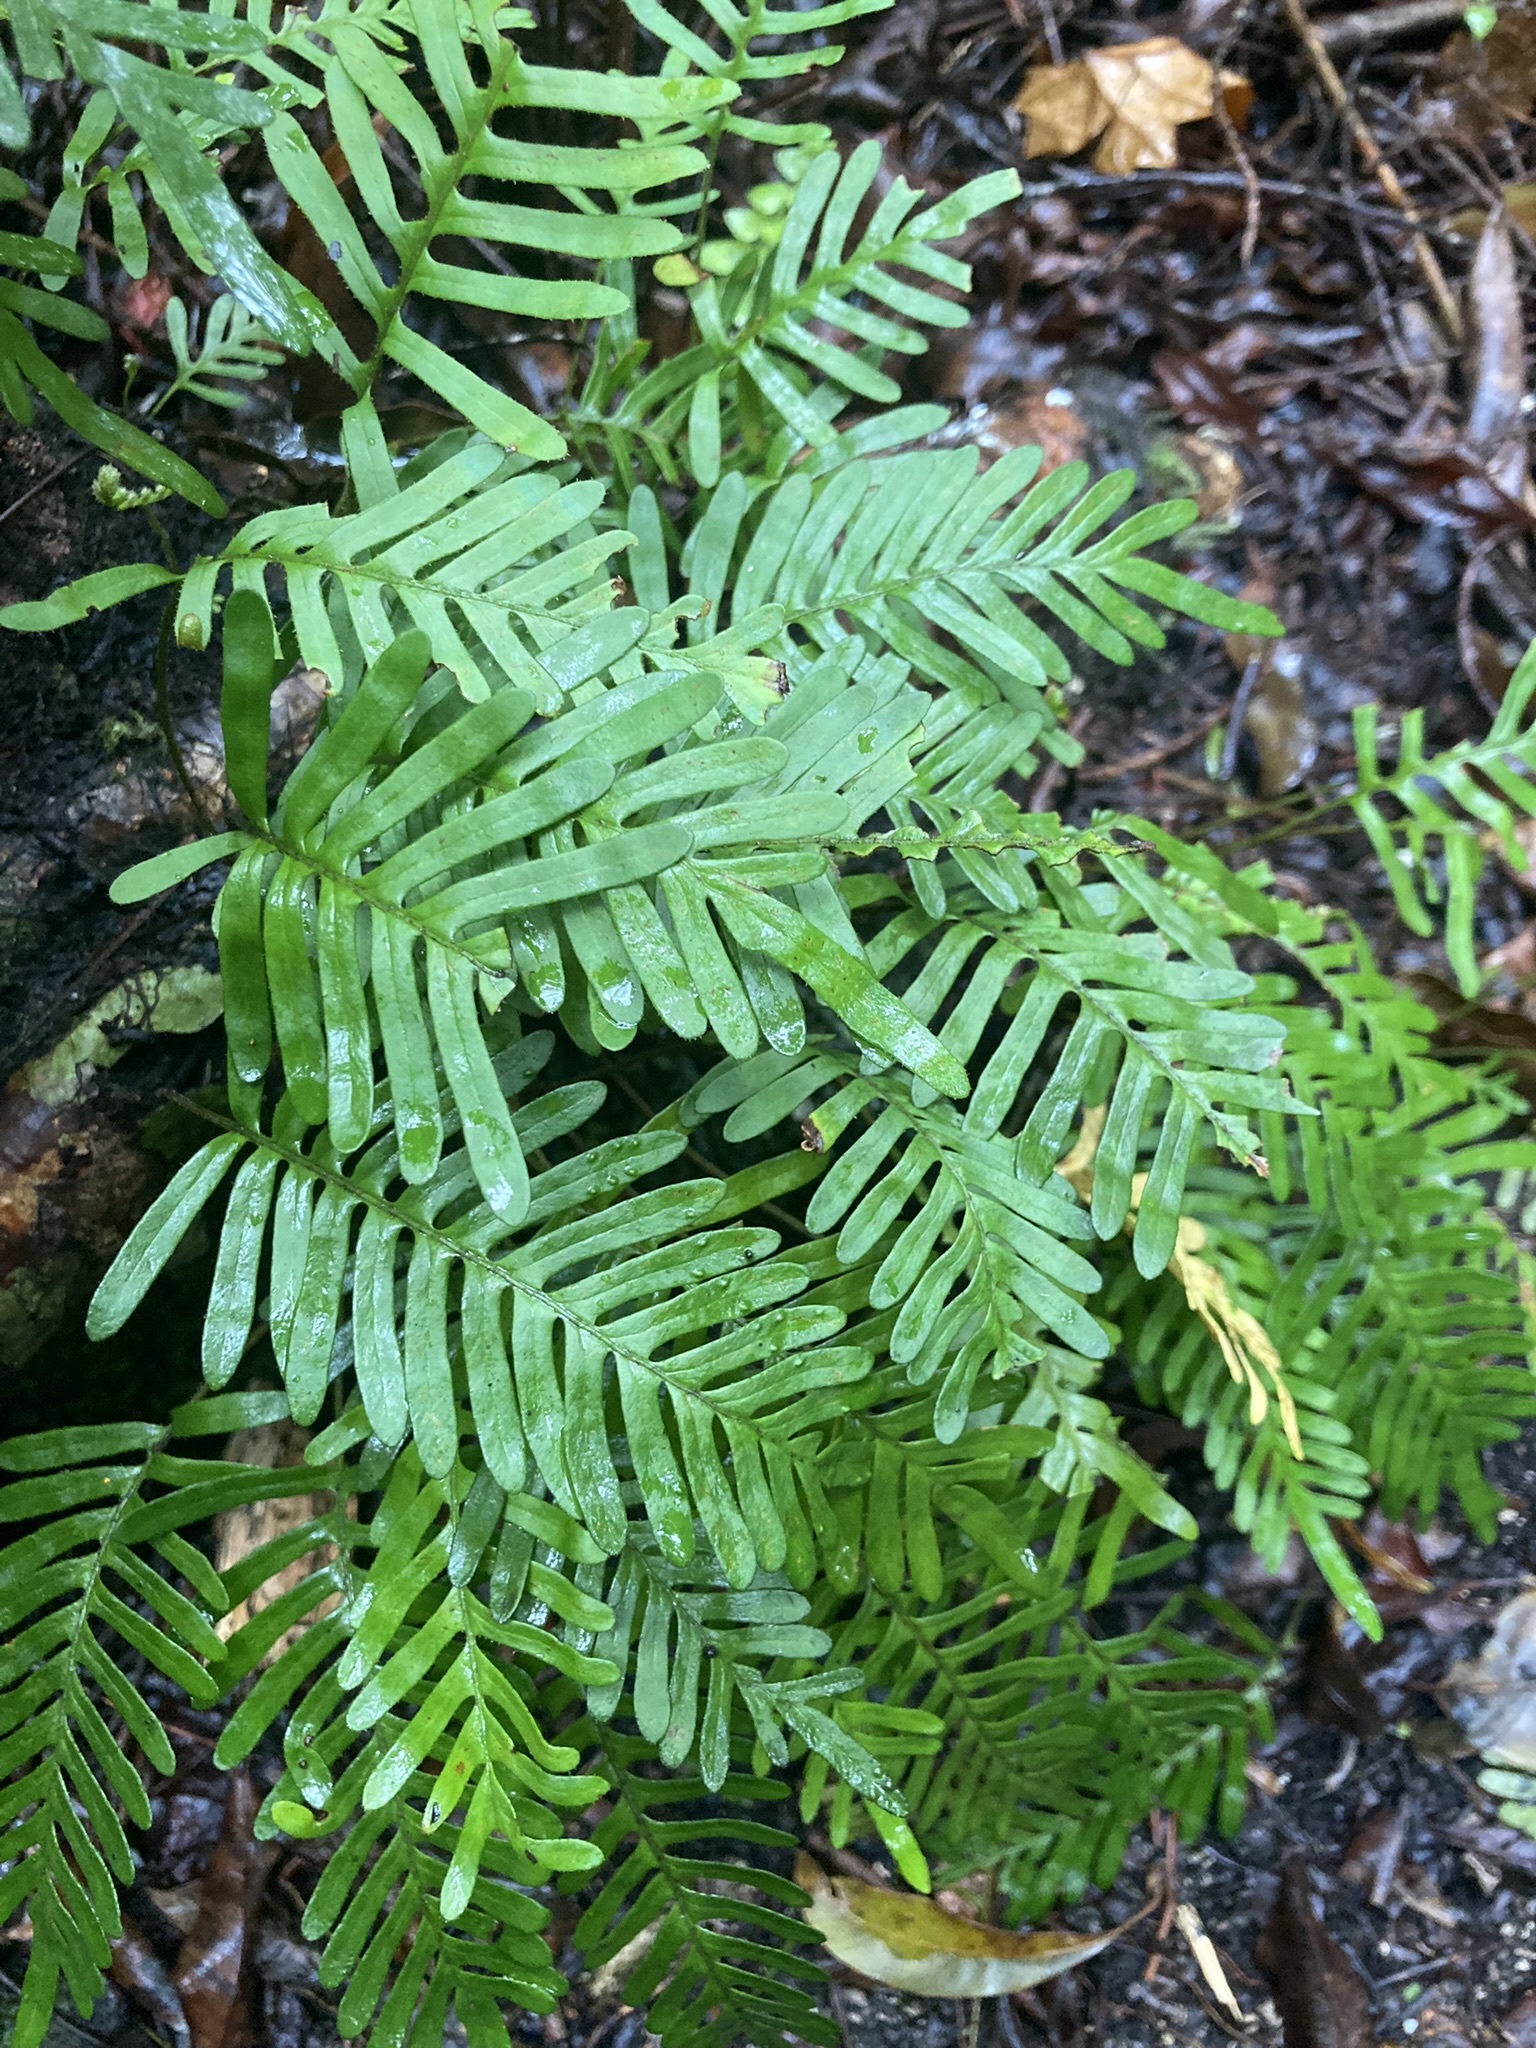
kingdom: Plantae
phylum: Tracheophyta
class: Polypodiopsida
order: Polypodiales
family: Polypodiaceae
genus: Pleopeltis
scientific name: Pleopeltis michauxiana
